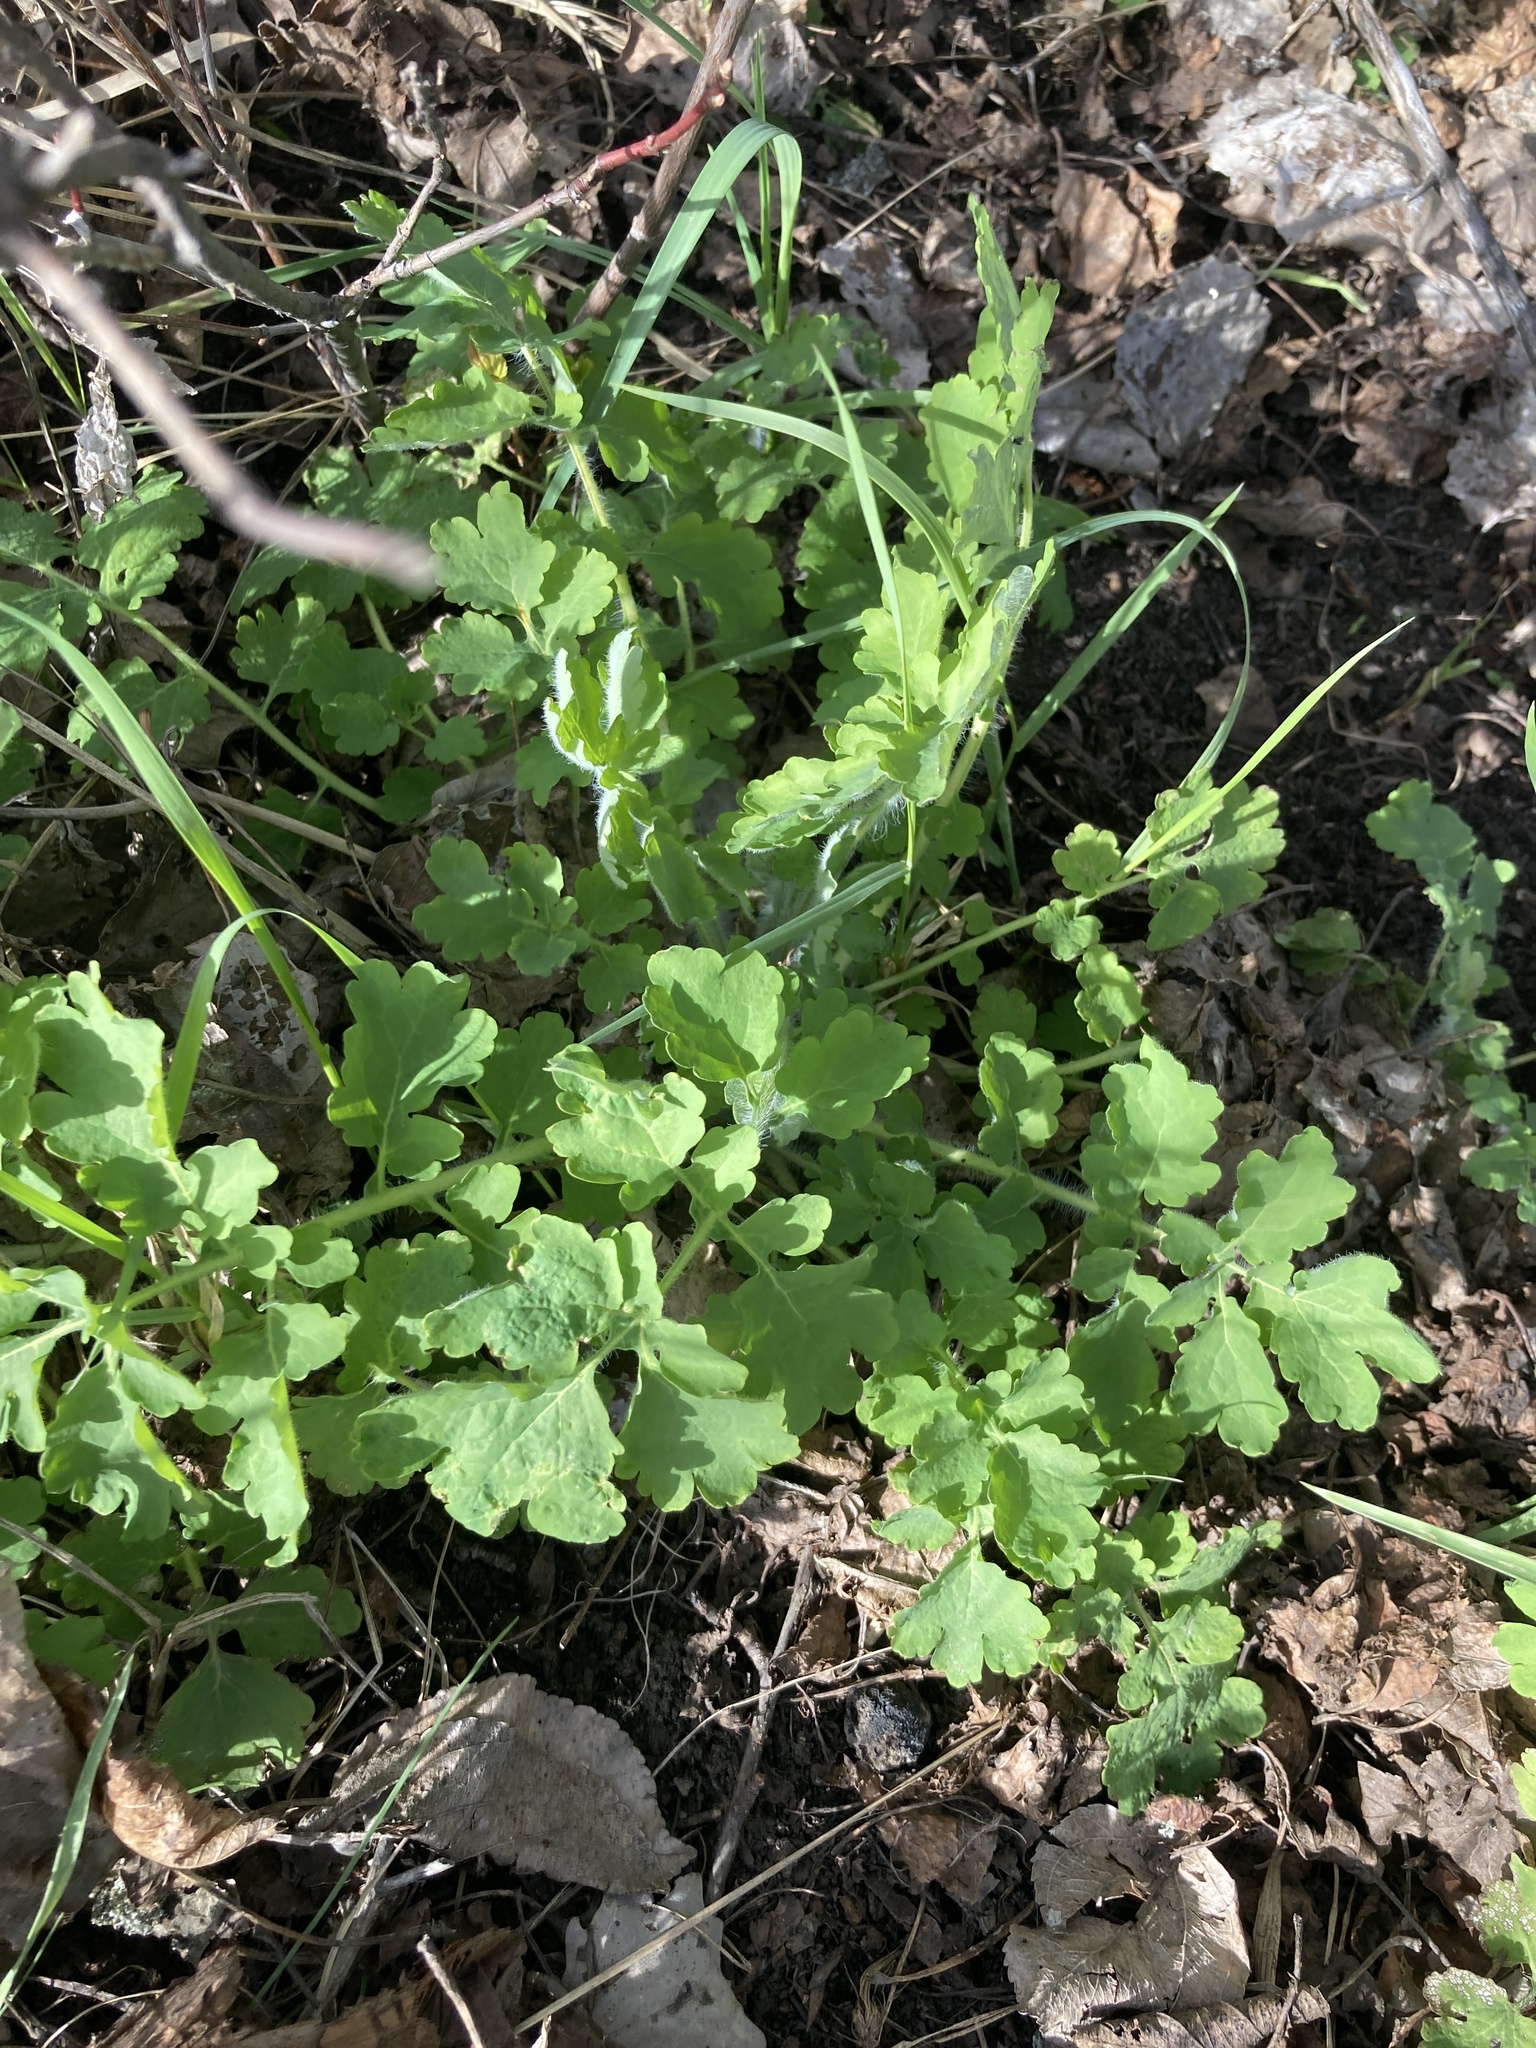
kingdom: Plantae
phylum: Tracheophyta
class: Magnoliopsida
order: Ranunculales
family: Papaveraceae
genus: Chelidonium
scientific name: Chelidonium majus
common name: Greater celandine
